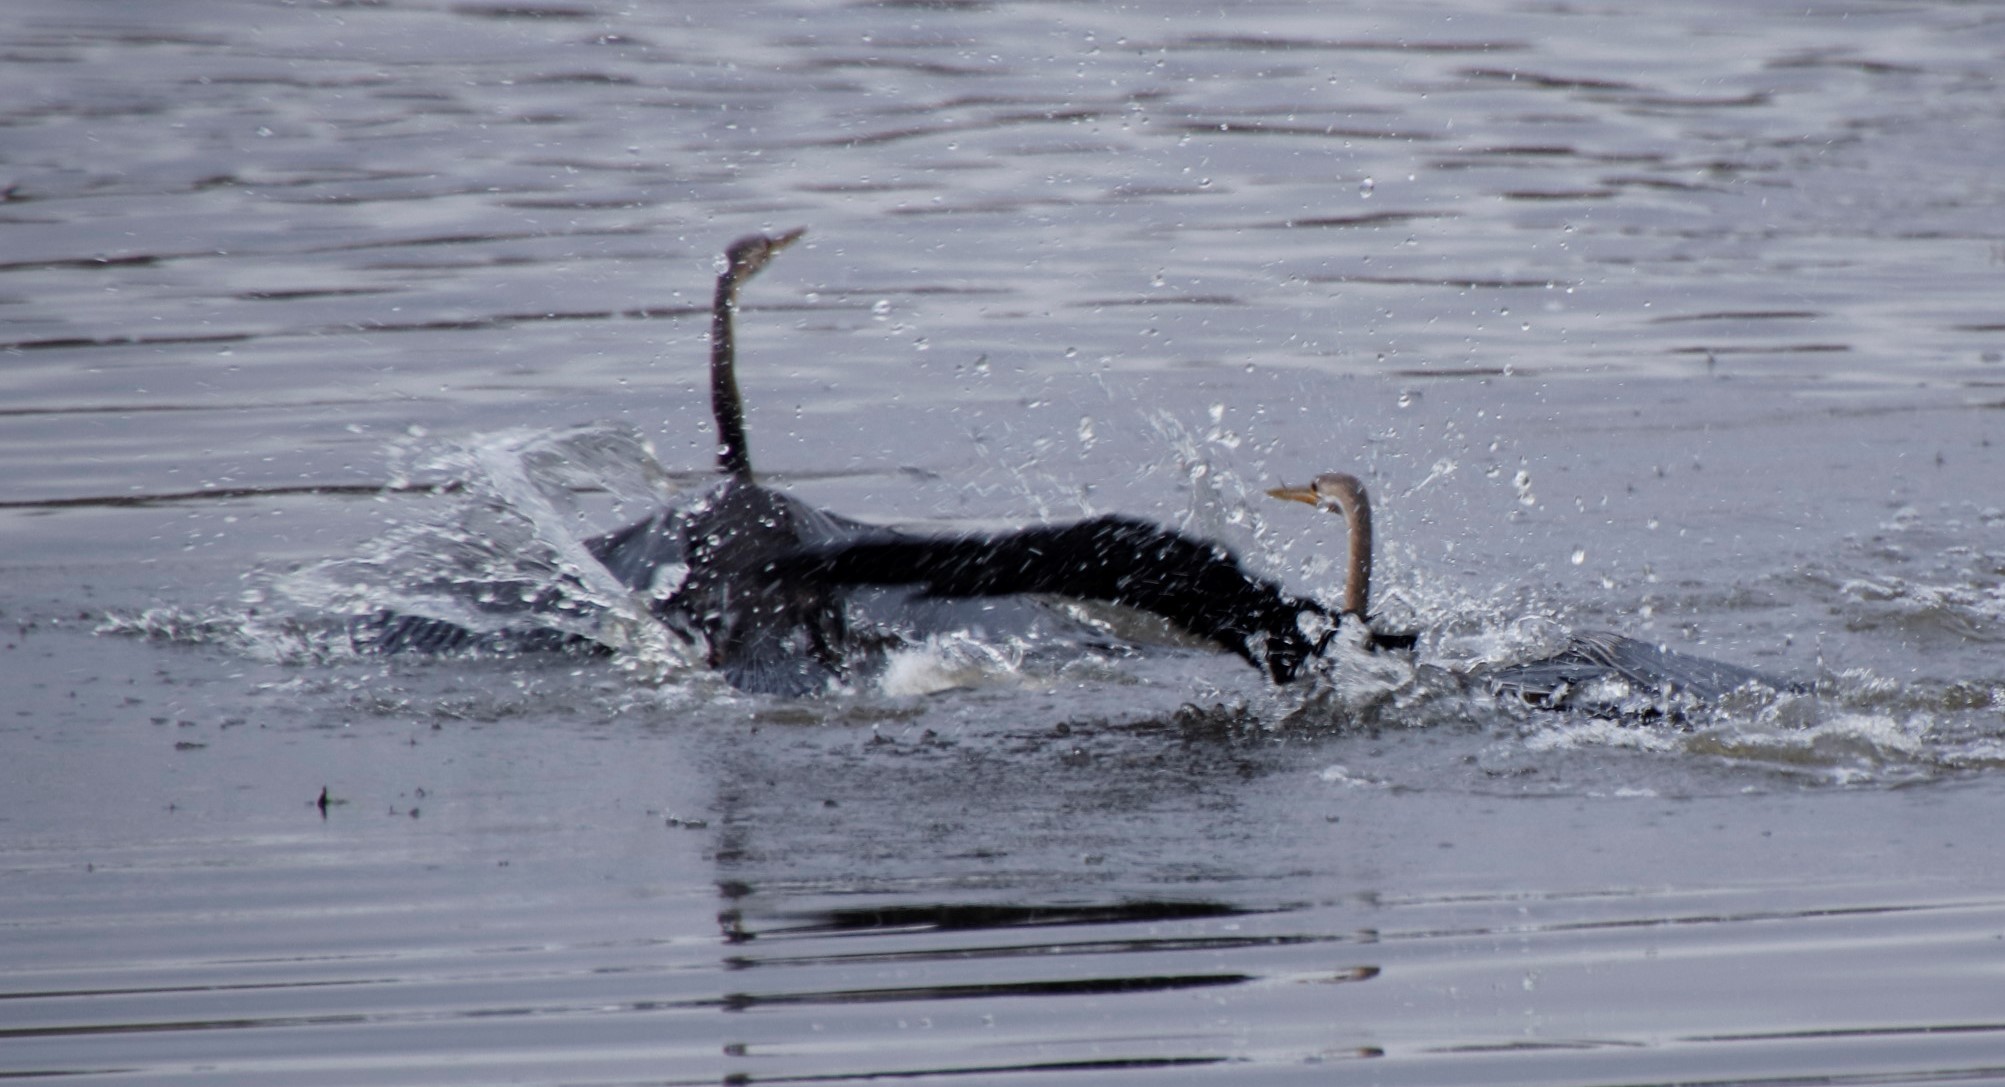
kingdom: Animalia
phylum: Chordata
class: Aves
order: Suliformes
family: Anhingidae
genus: Anhinga
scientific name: Anhinga rufa
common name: African darter
